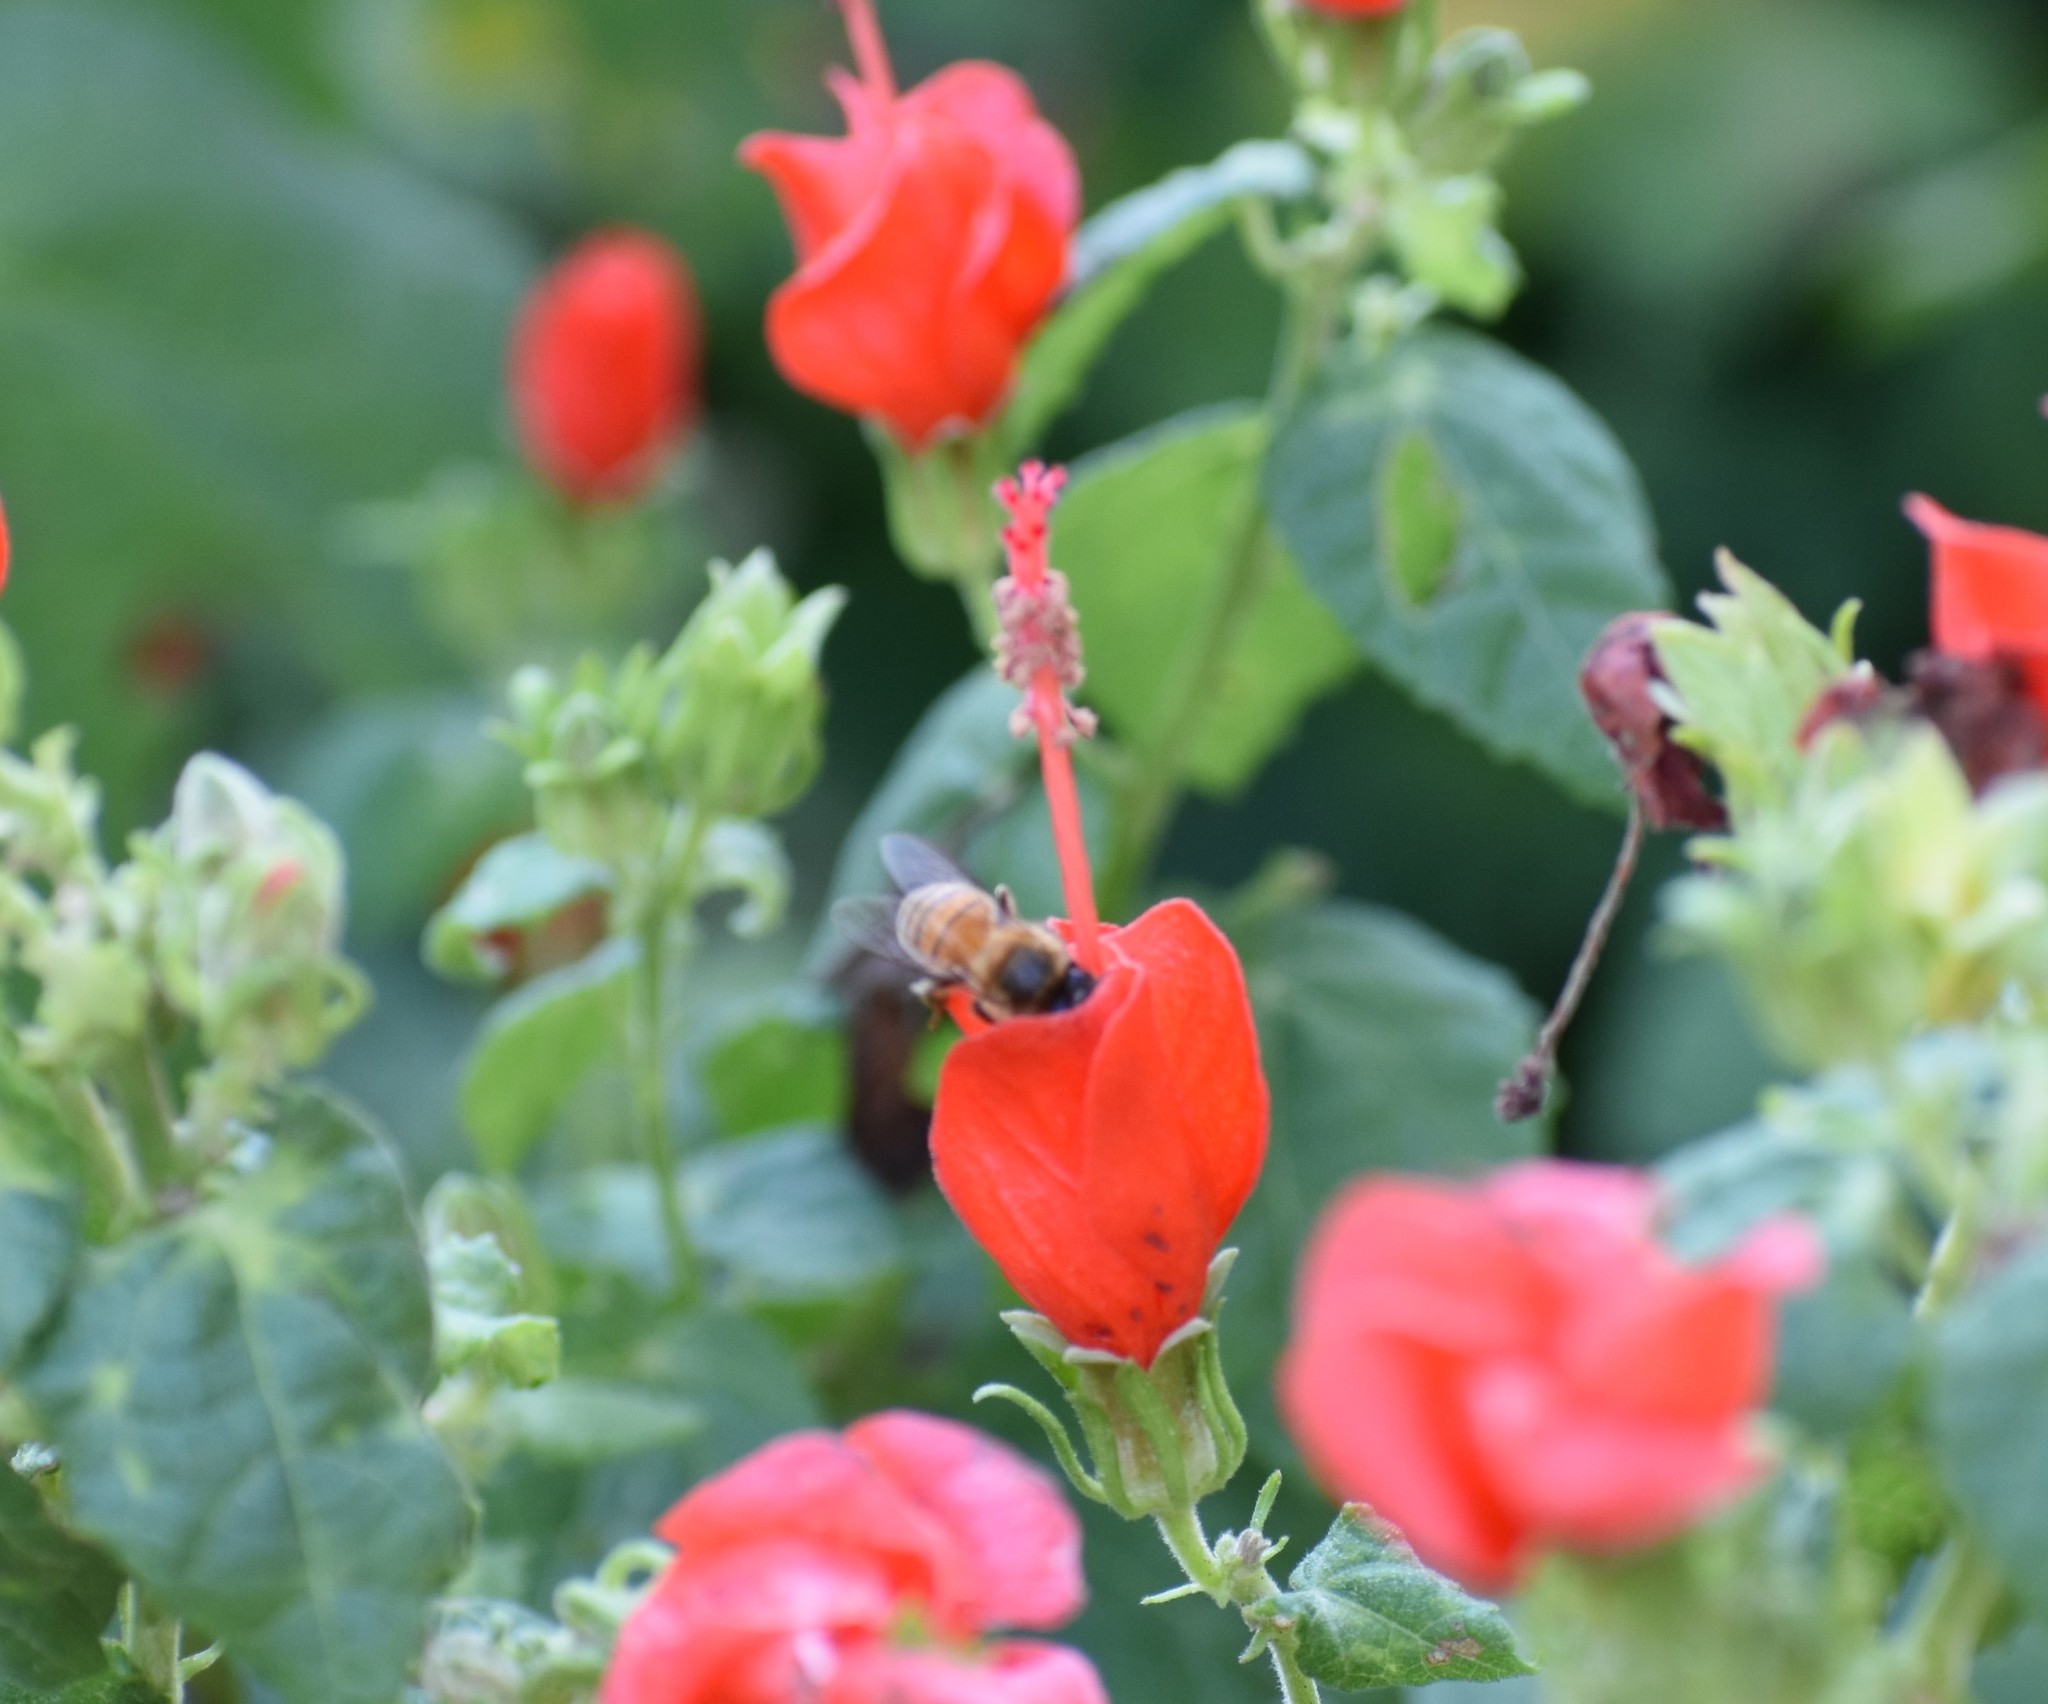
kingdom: Animalia
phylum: Arthropoda
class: Insecta
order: Hymenoptera
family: Apidae
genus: Apis
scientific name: Apis mellifera
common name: Honey bee
